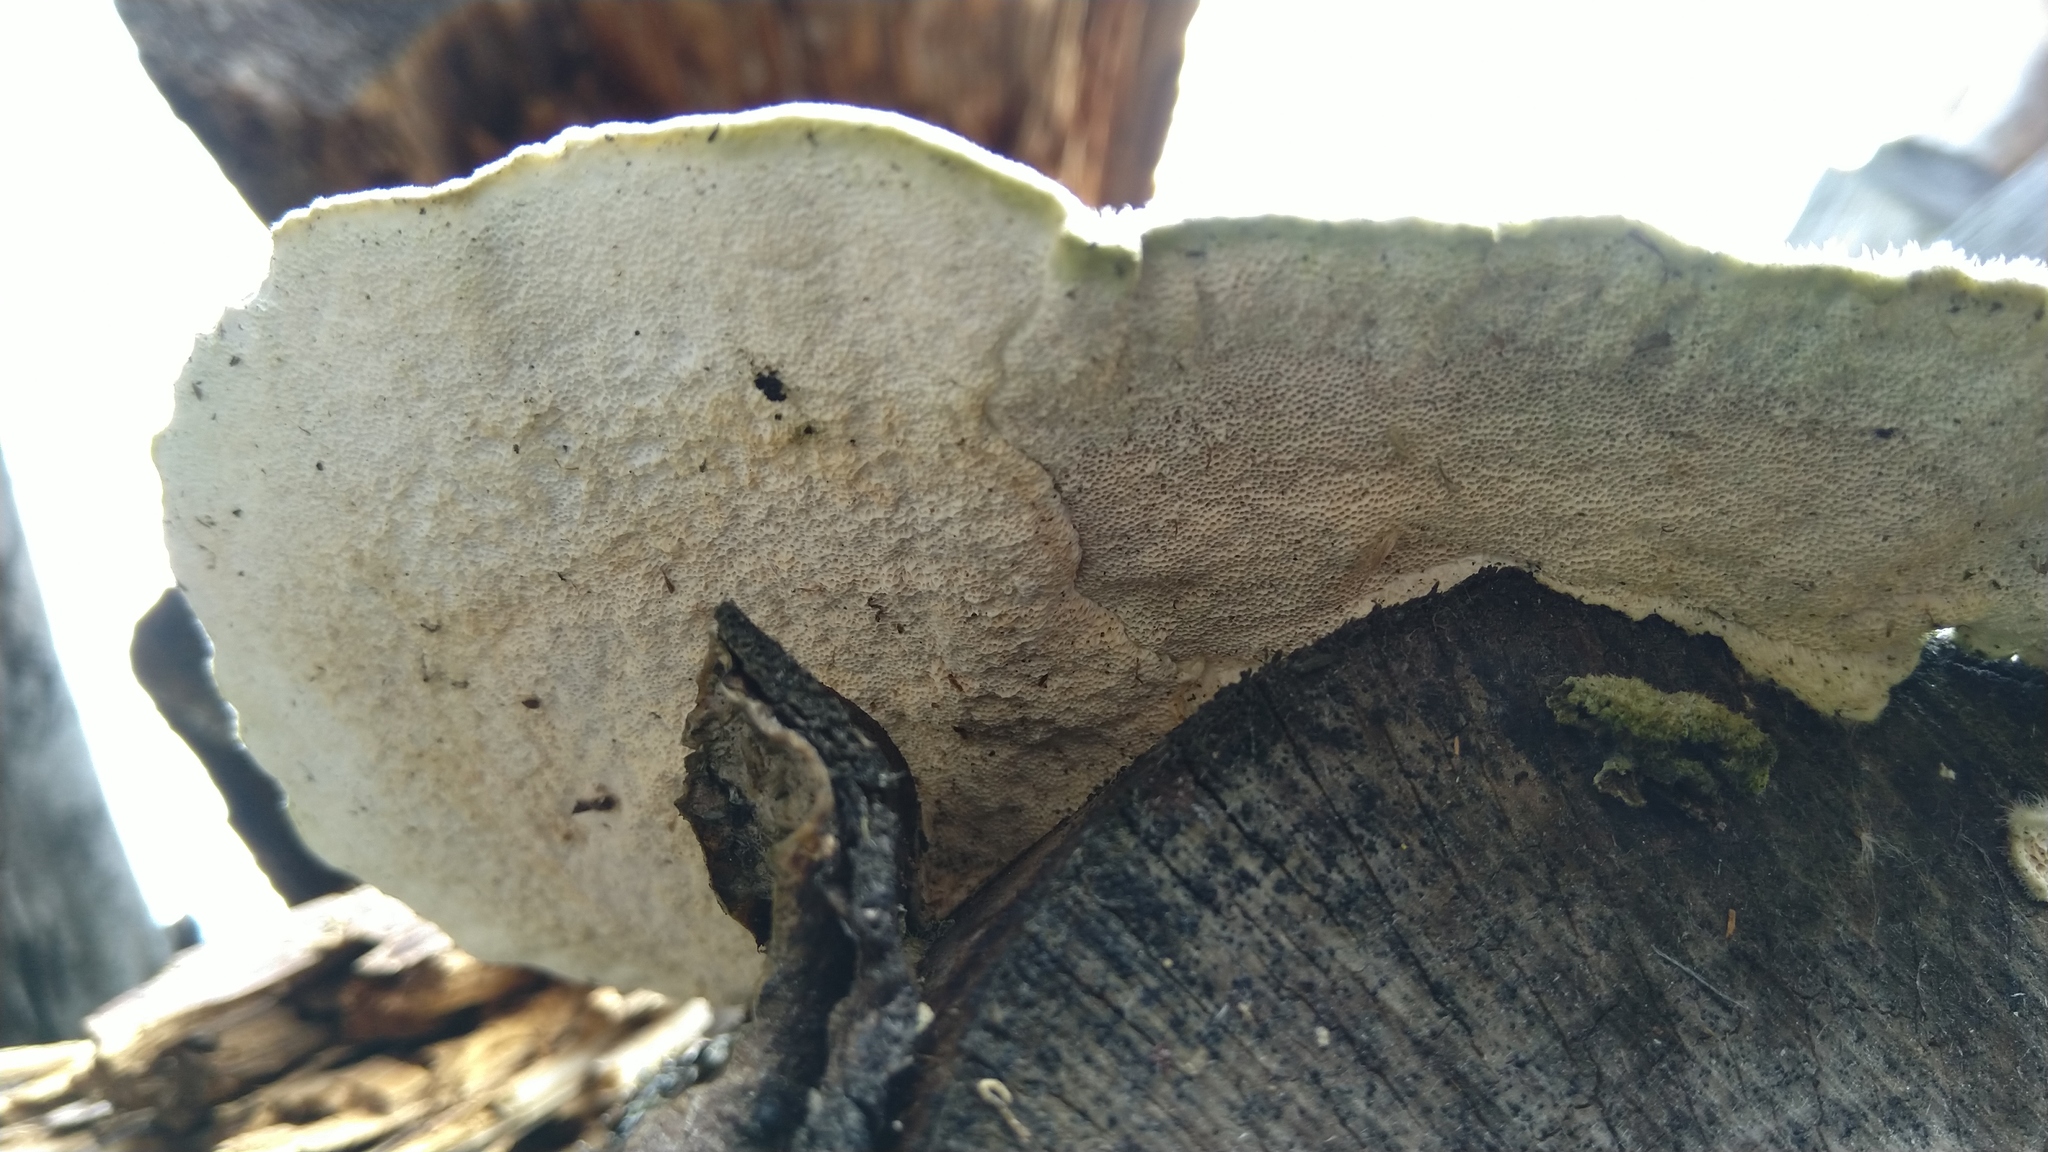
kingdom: Fungi
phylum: Basidiomycota
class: Agaricomycetes
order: Polyporales
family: Polyporaceae
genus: Trametes
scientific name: Trametes hirsuta
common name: Hairy bracket
